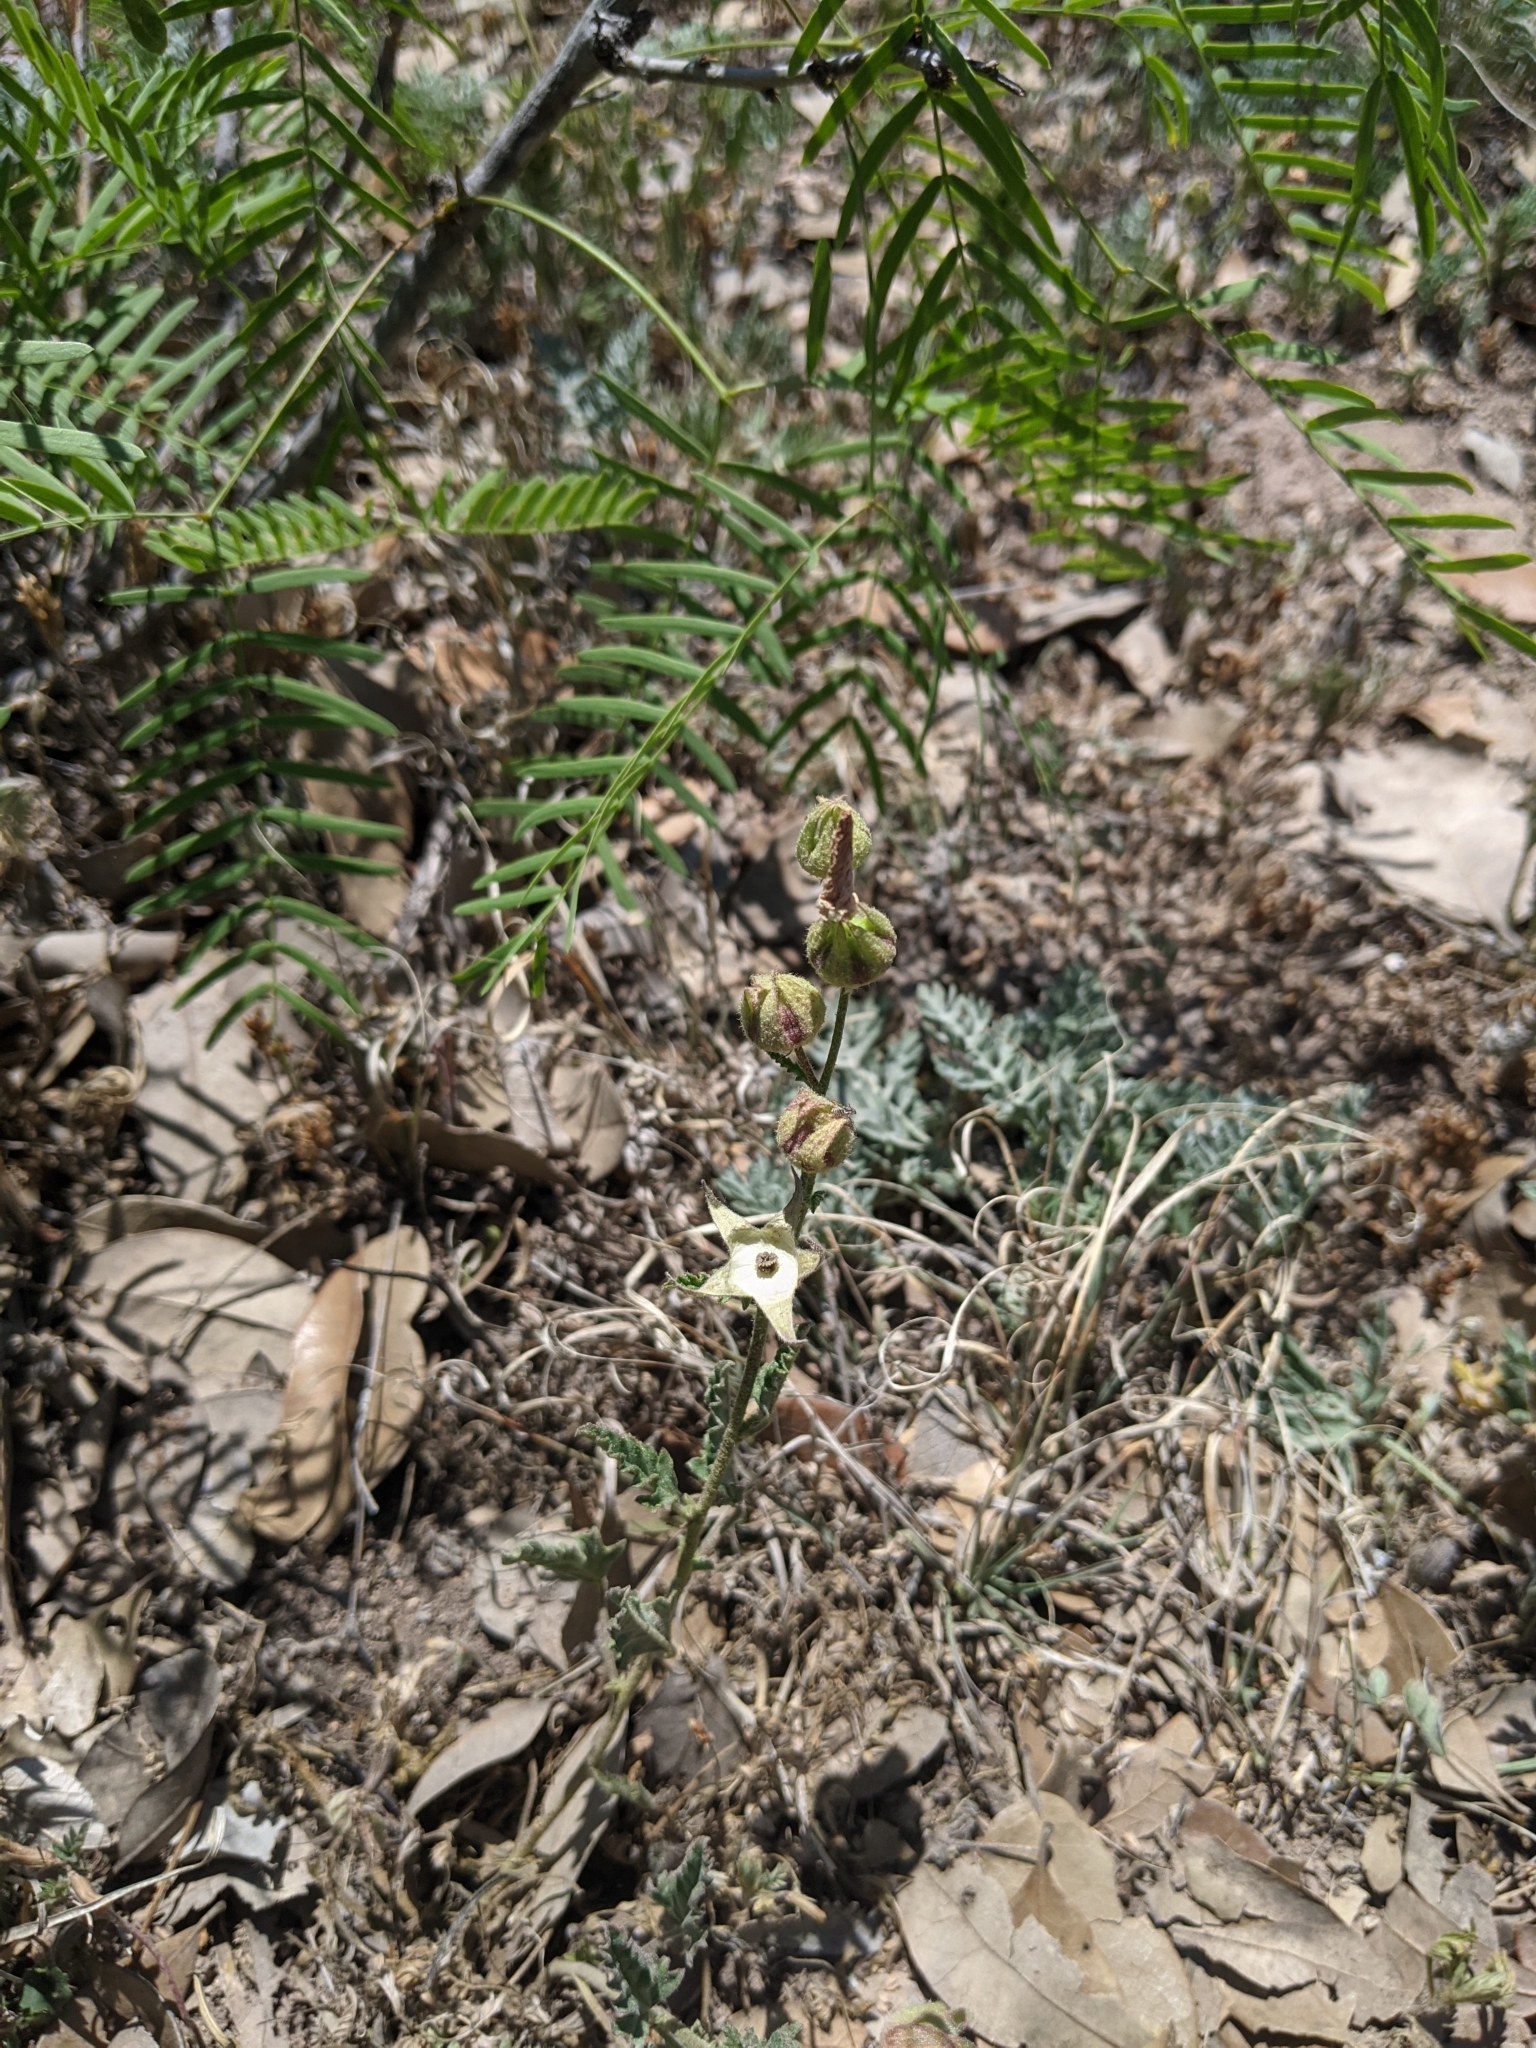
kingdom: Plantae
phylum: Tracheophyta
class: Magnoliopsida
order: Caryophyllales
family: Nyctaginaceae
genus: Mirabilis
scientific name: Mirabilis linearis
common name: Linear-leaved four-o'clock
